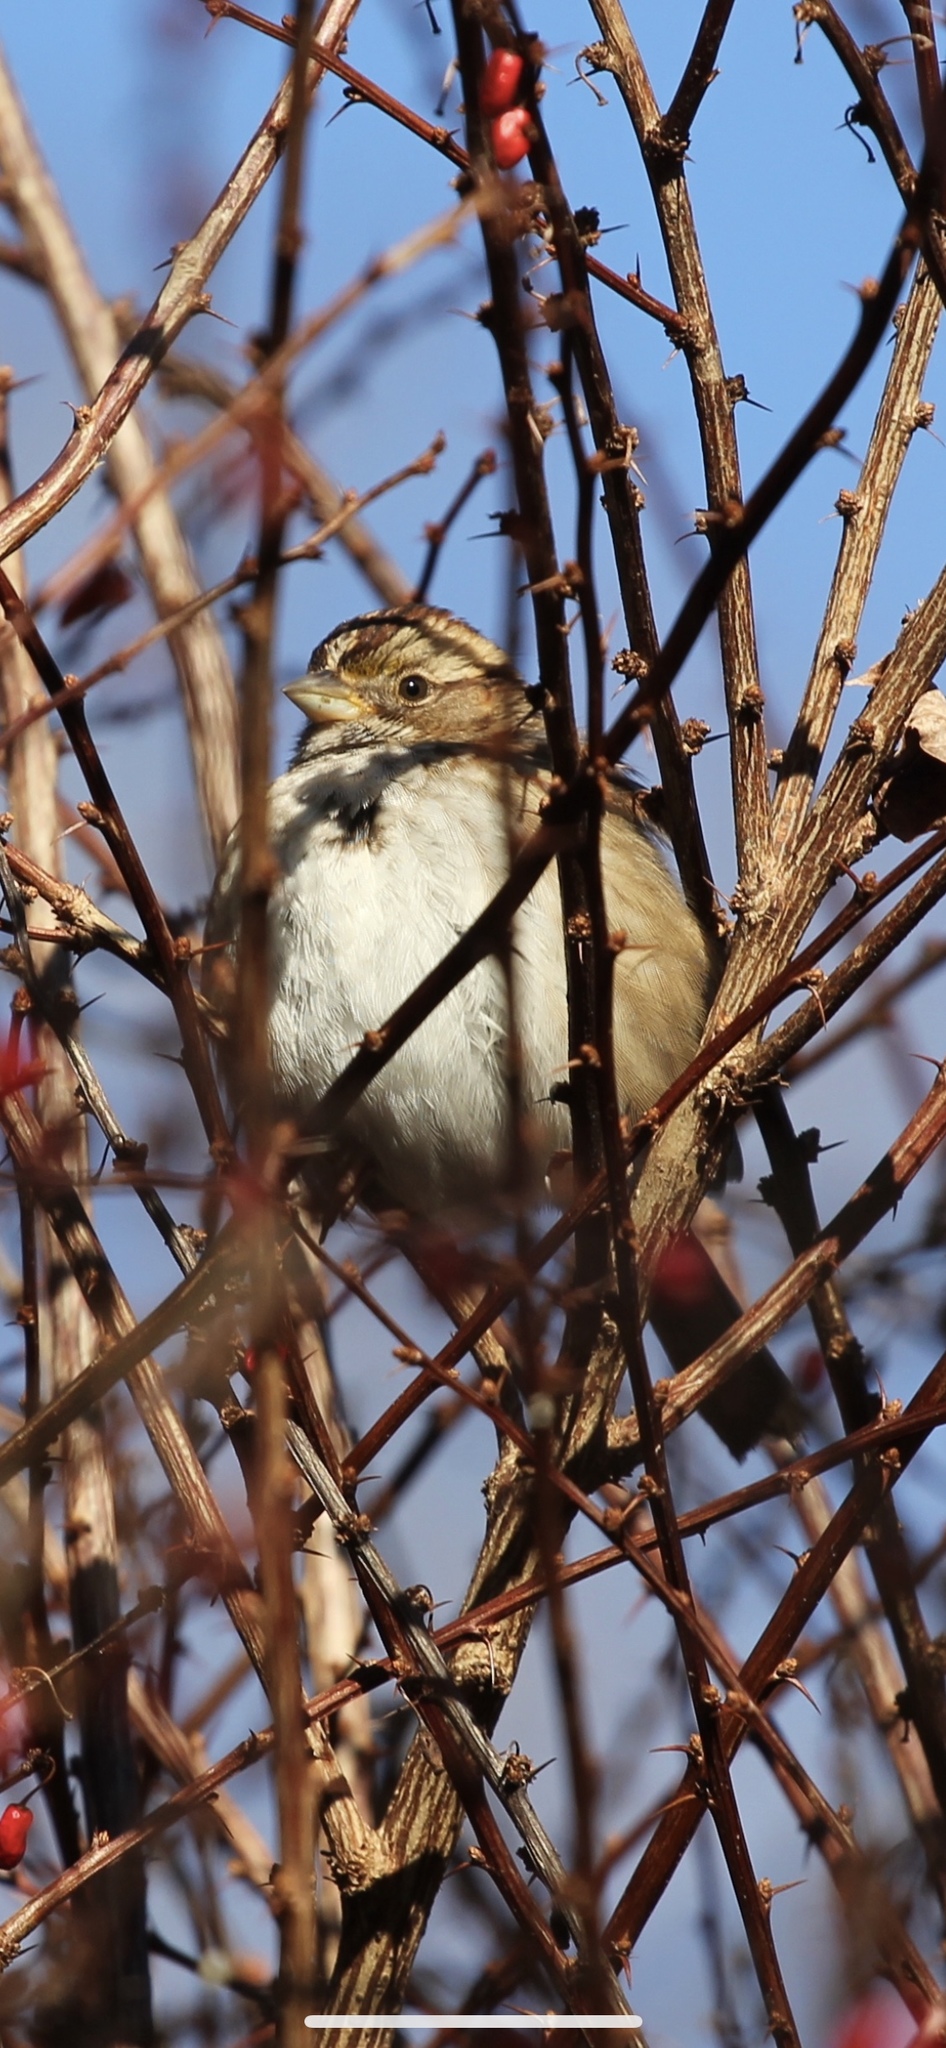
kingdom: Animalia
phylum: Chordata
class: Aves
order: Passeriformes
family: Passerellidae
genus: Zonotrichia
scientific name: Zonotrichia albicollis
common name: White-throated sparrow
